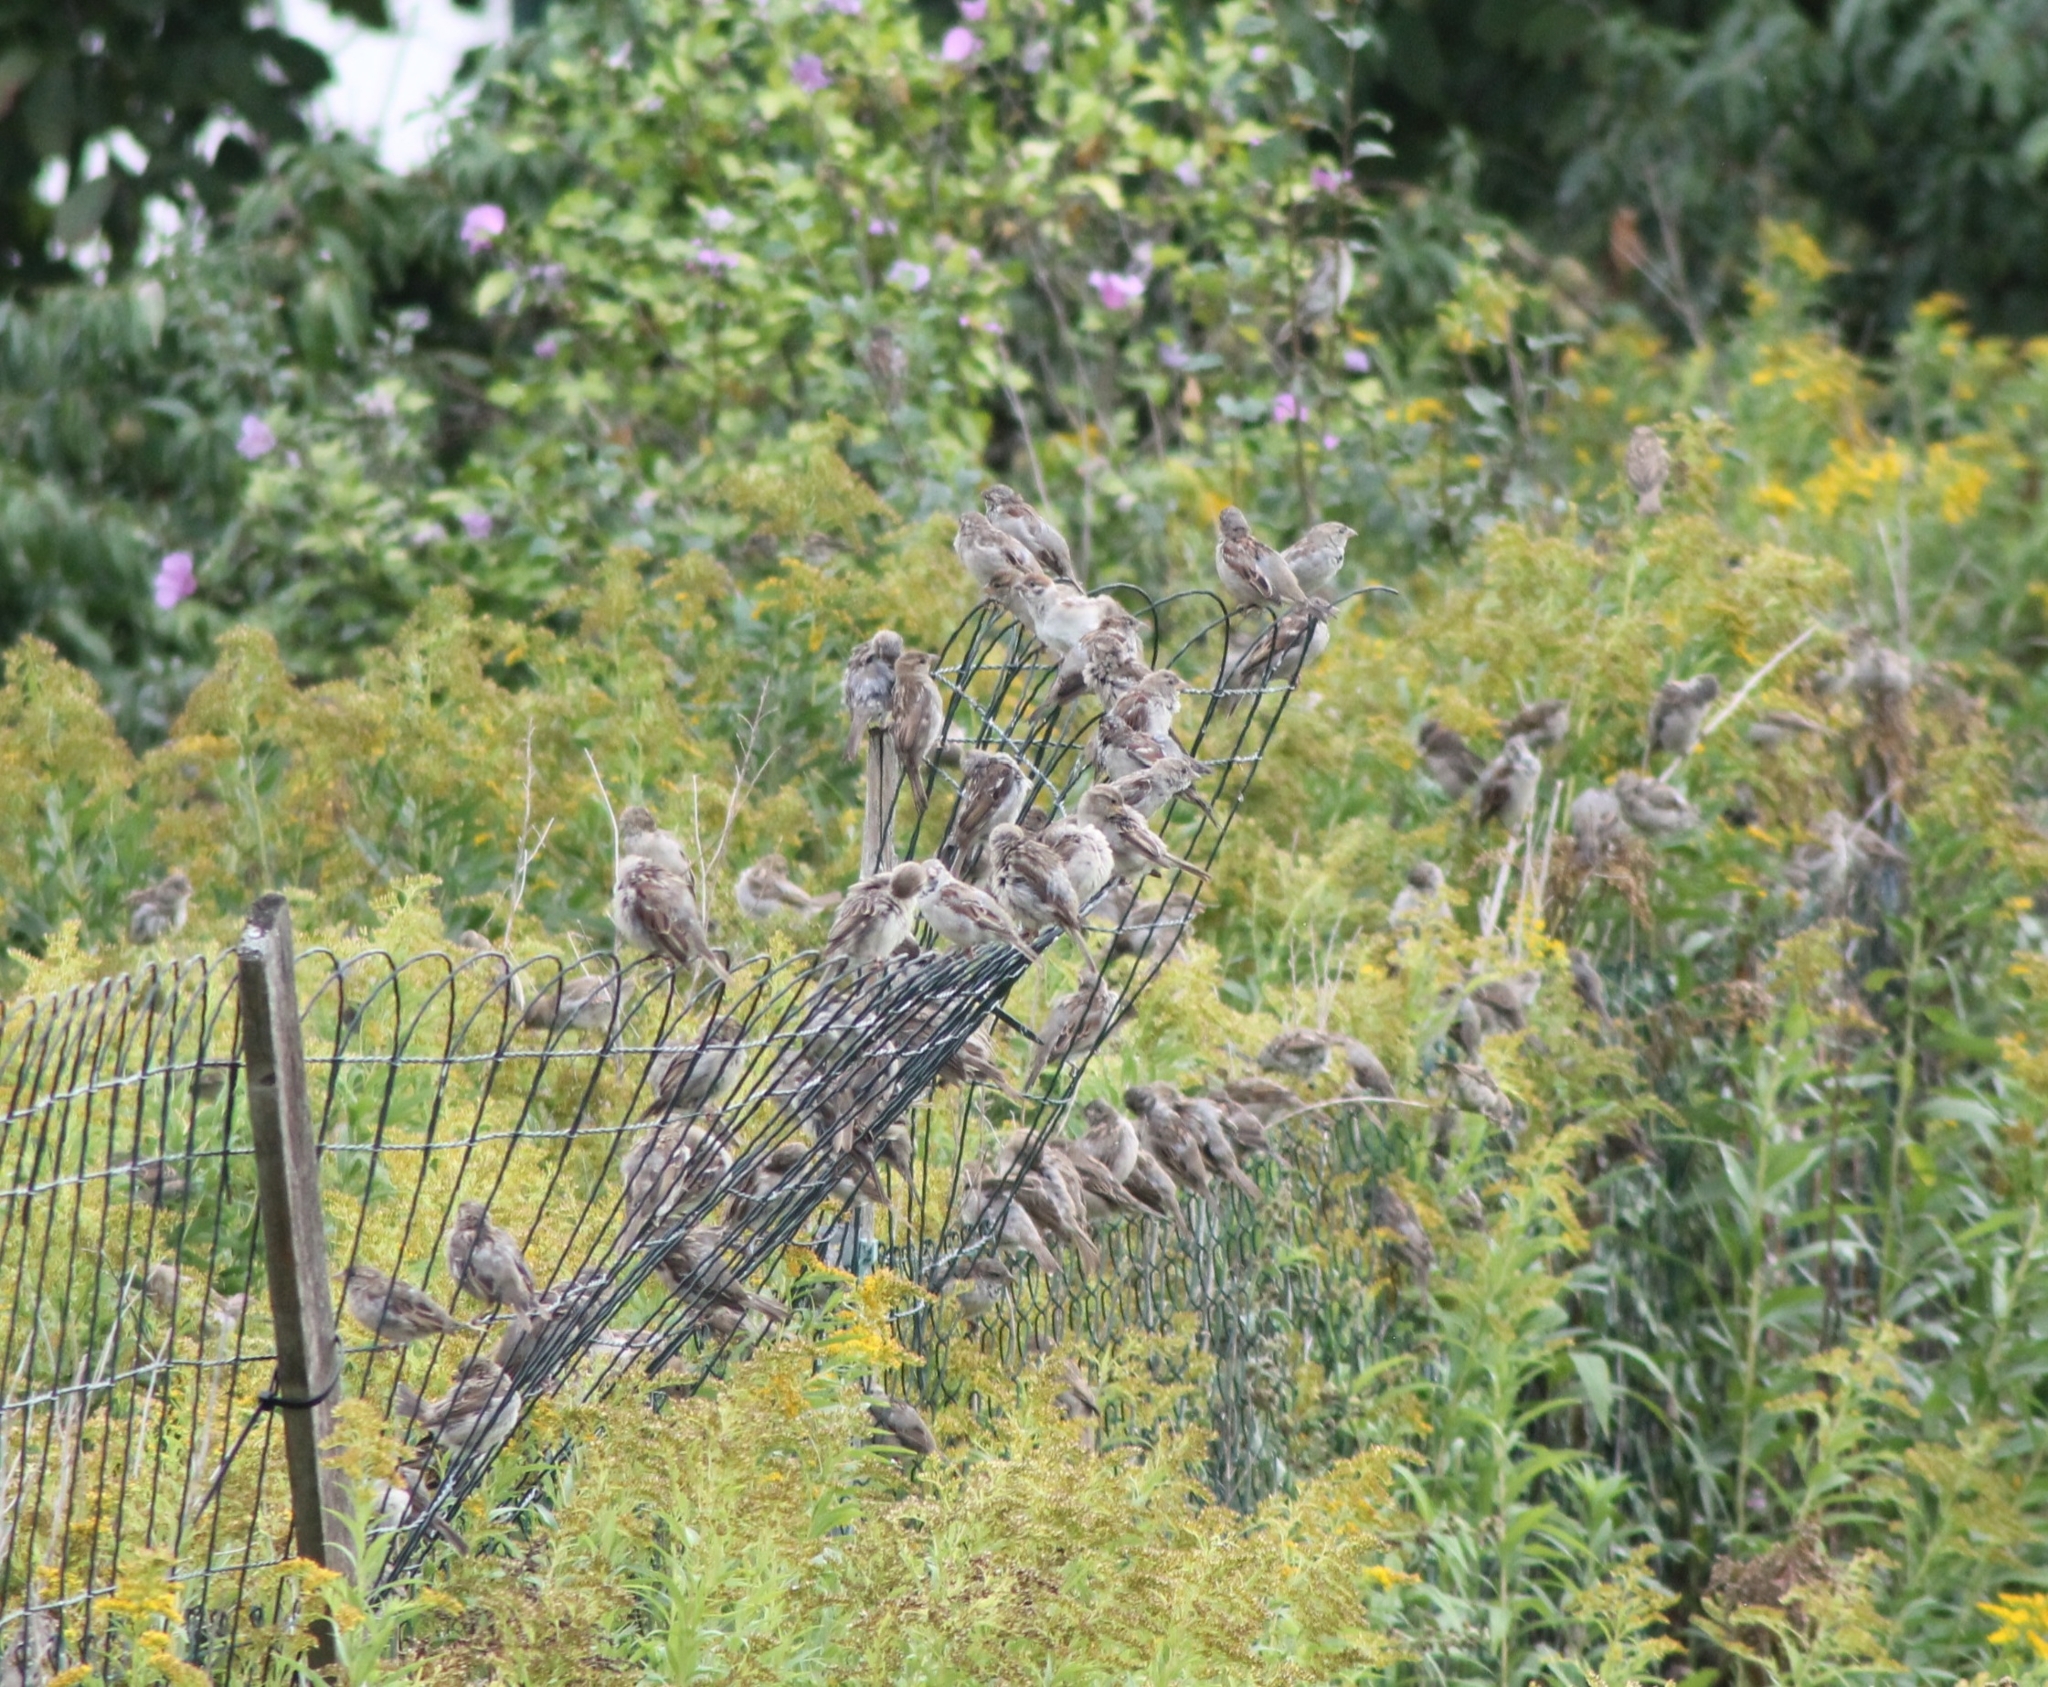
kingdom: Animalia
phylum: Chordata
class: Aves
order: Passeriformes
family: Passeridae
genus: Passer
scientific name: Passer domesticus
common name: House sparrow
